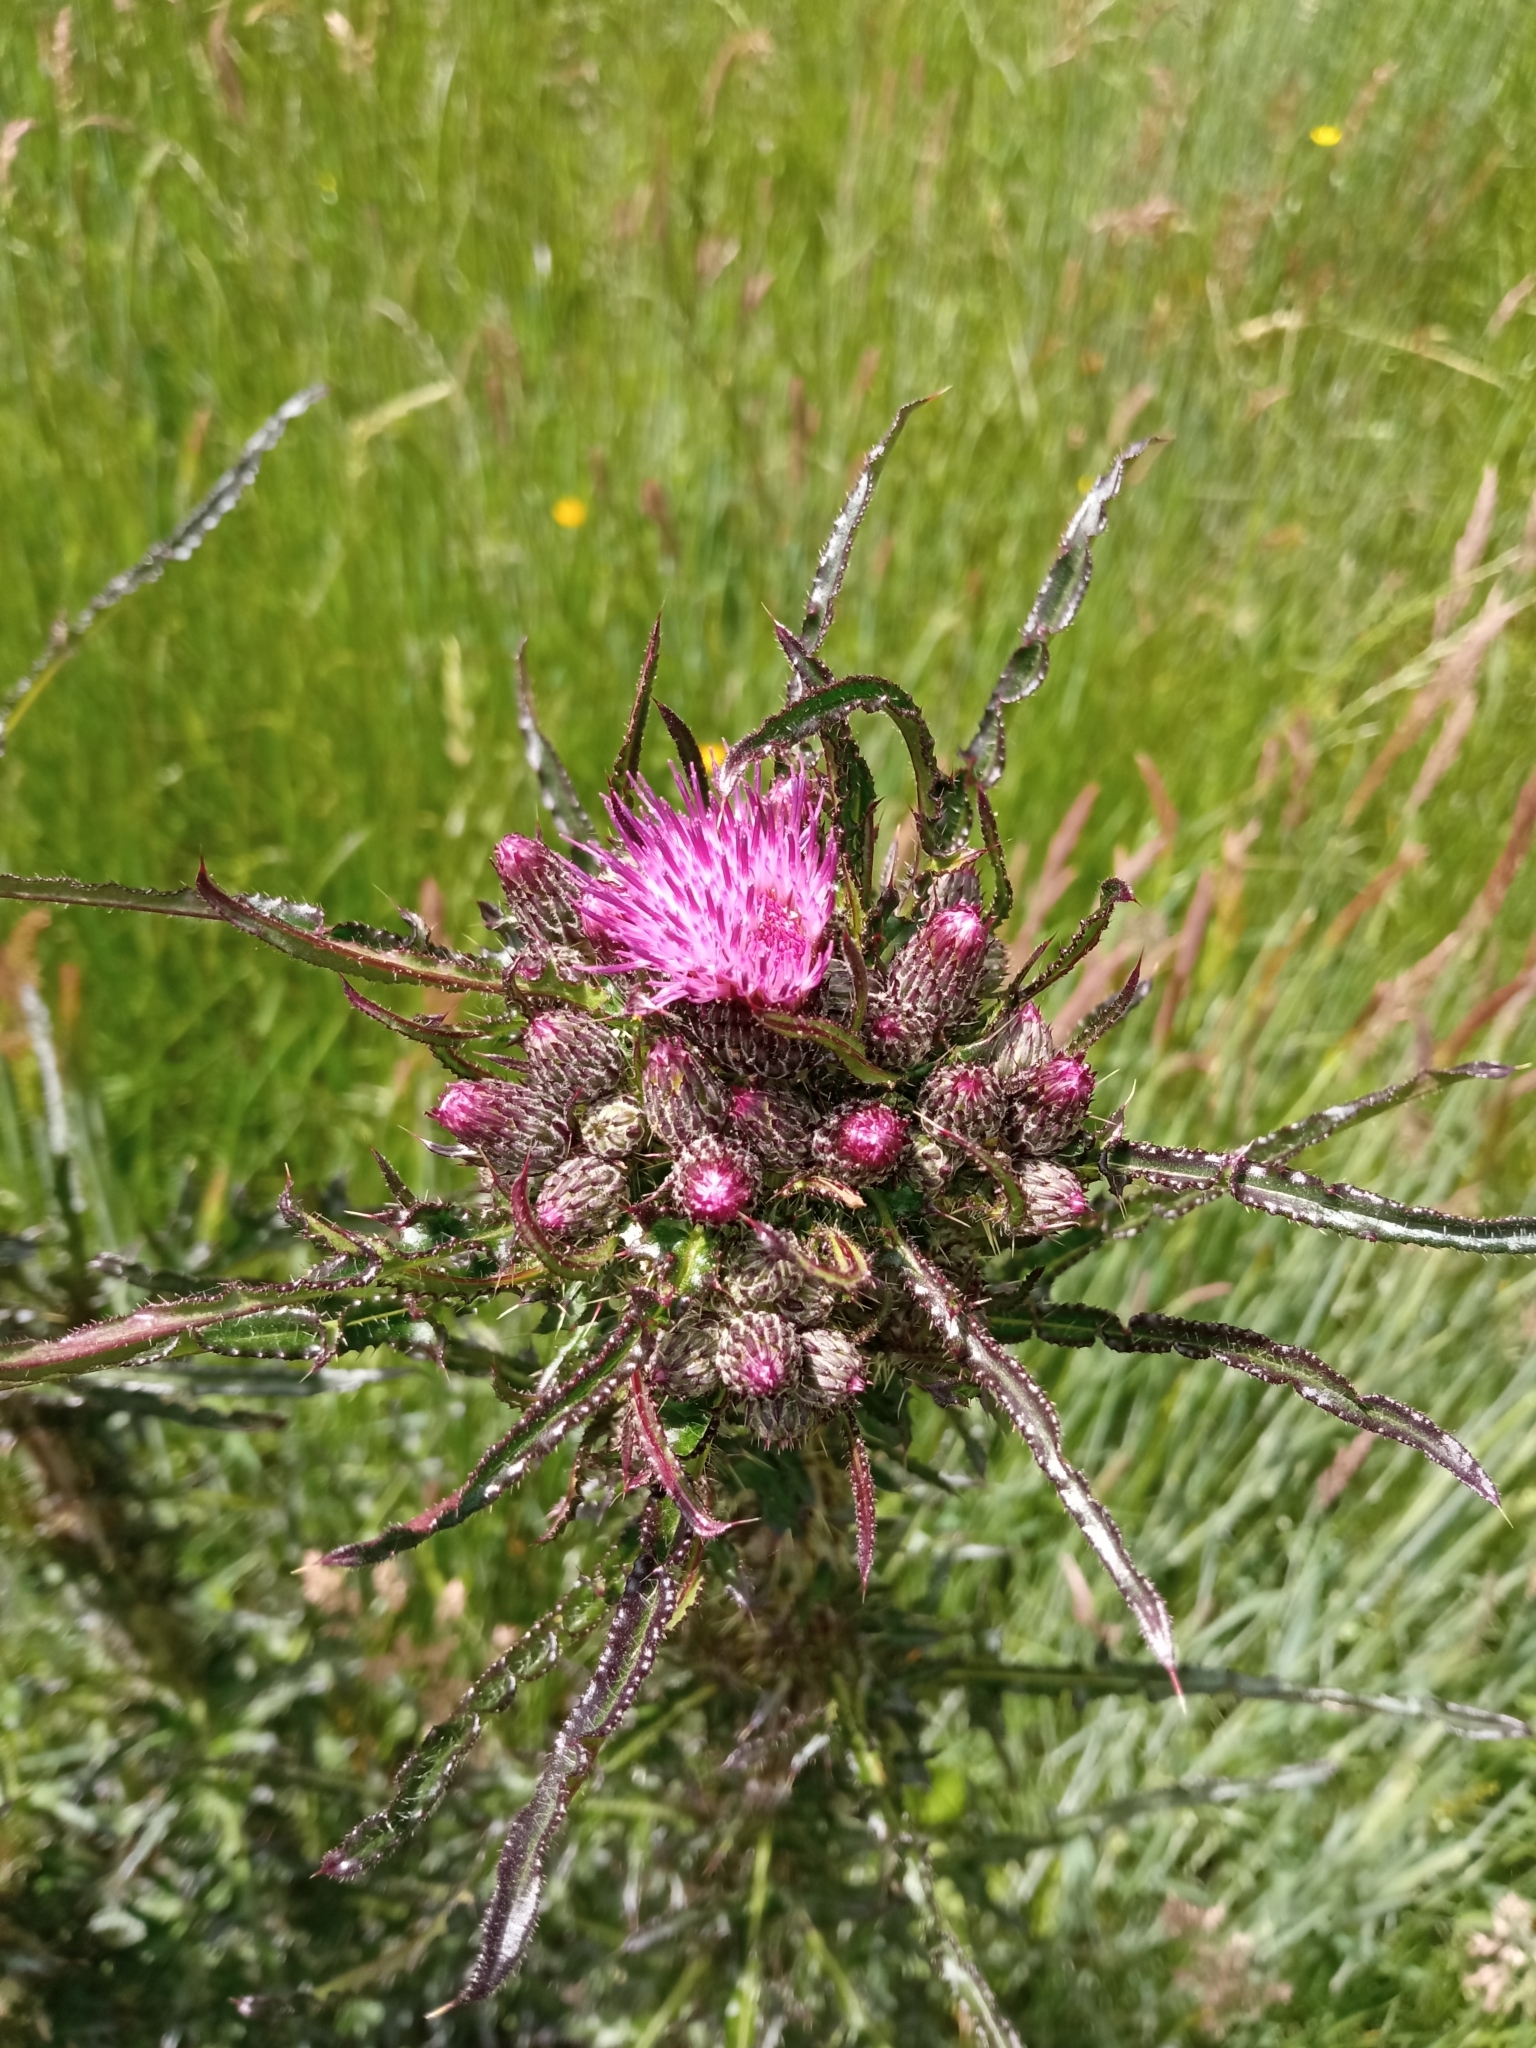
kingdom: Plantae
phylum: Tracheophyta
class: Magnoliopsida
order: Asterales
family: Asteraceae
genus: Cirsium
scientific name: Cirsium palustre
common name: Marsh thistle
